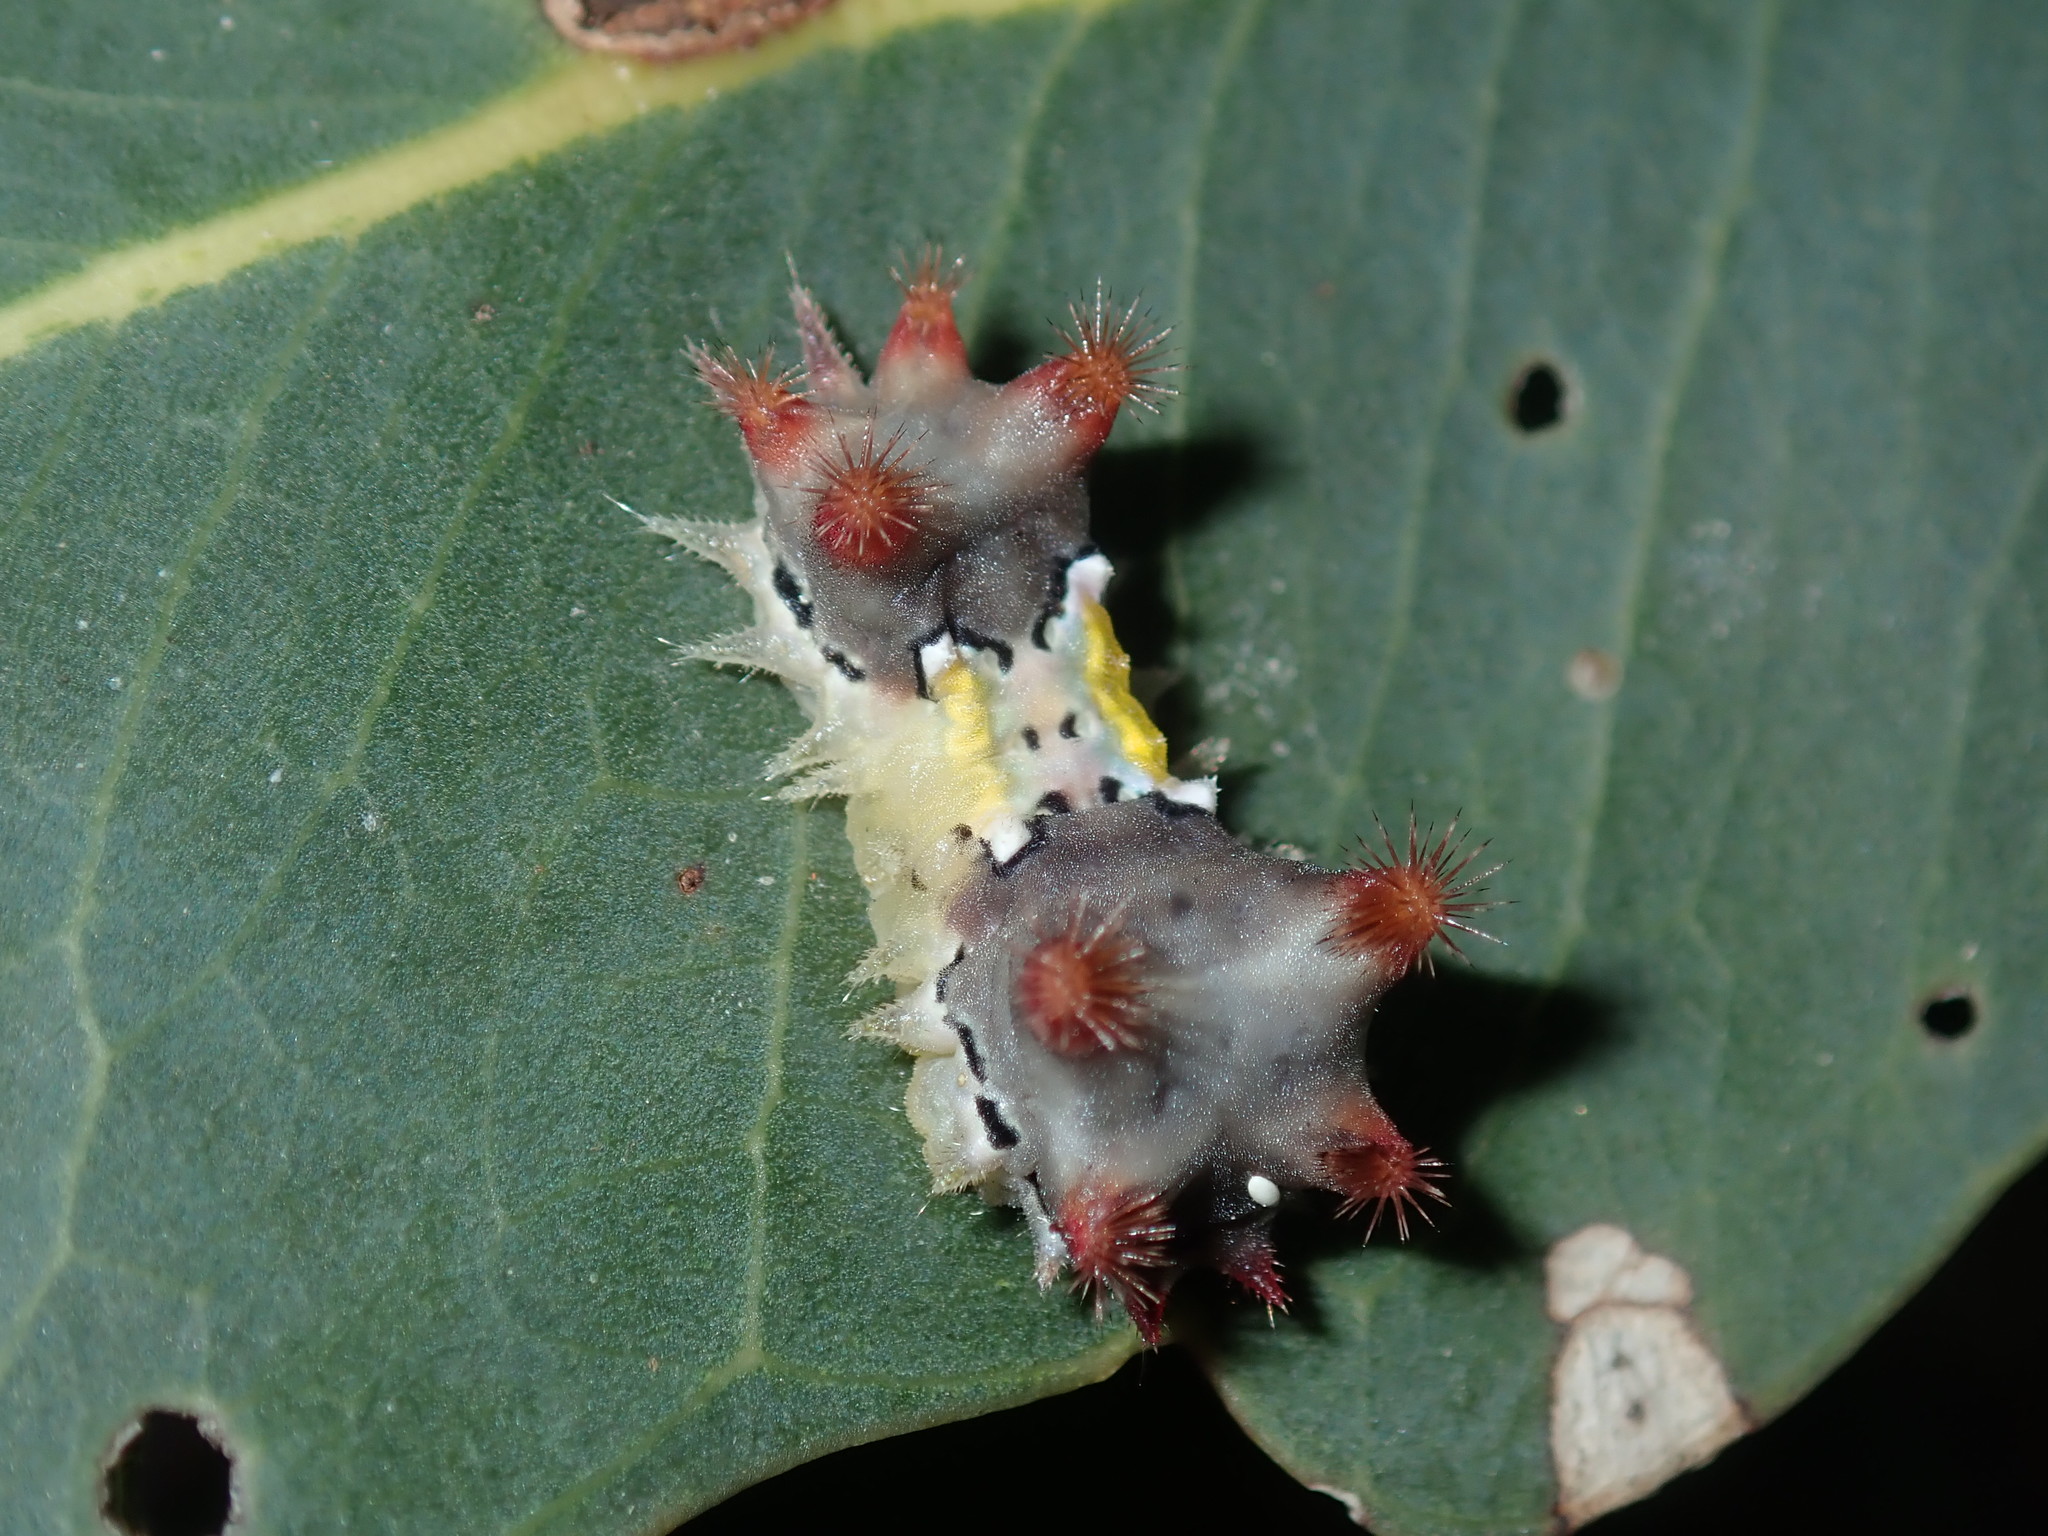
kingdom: Animalia
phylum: Arthropoda
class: Insecta
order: Lepidoptera
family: Limacodidae
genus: Doratifera
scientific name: Doratifera vulnerans
